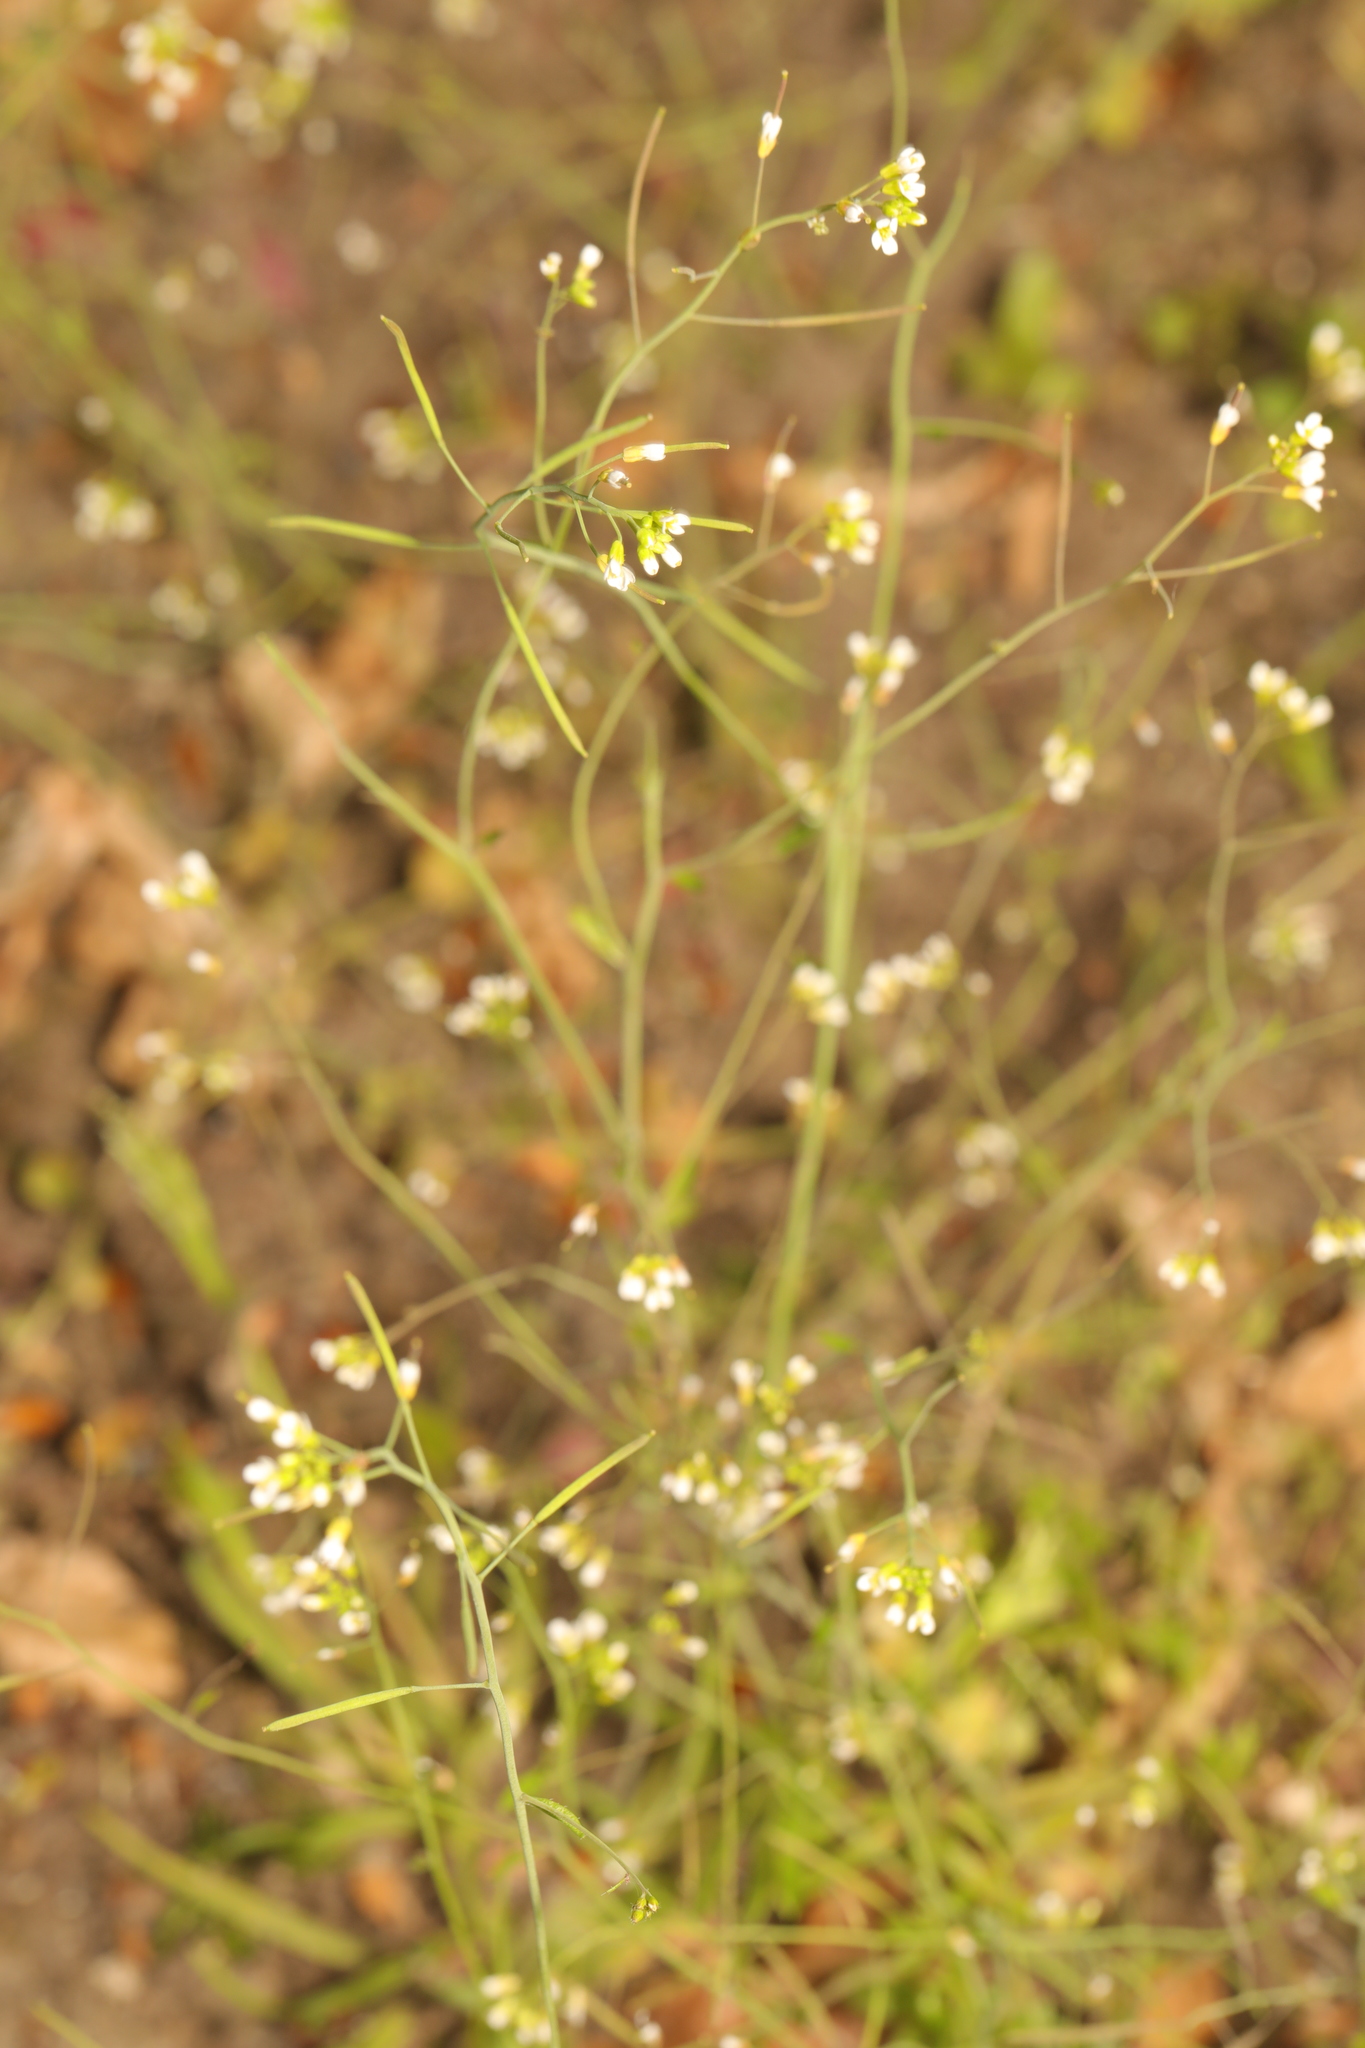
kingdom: Plantae
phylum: Tracheophyta
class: Magnoliopsida
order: Brassicales
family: Brassicaceae
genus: Arabidopsis
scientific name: Arabidopsis thaliana
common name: Thale cress
